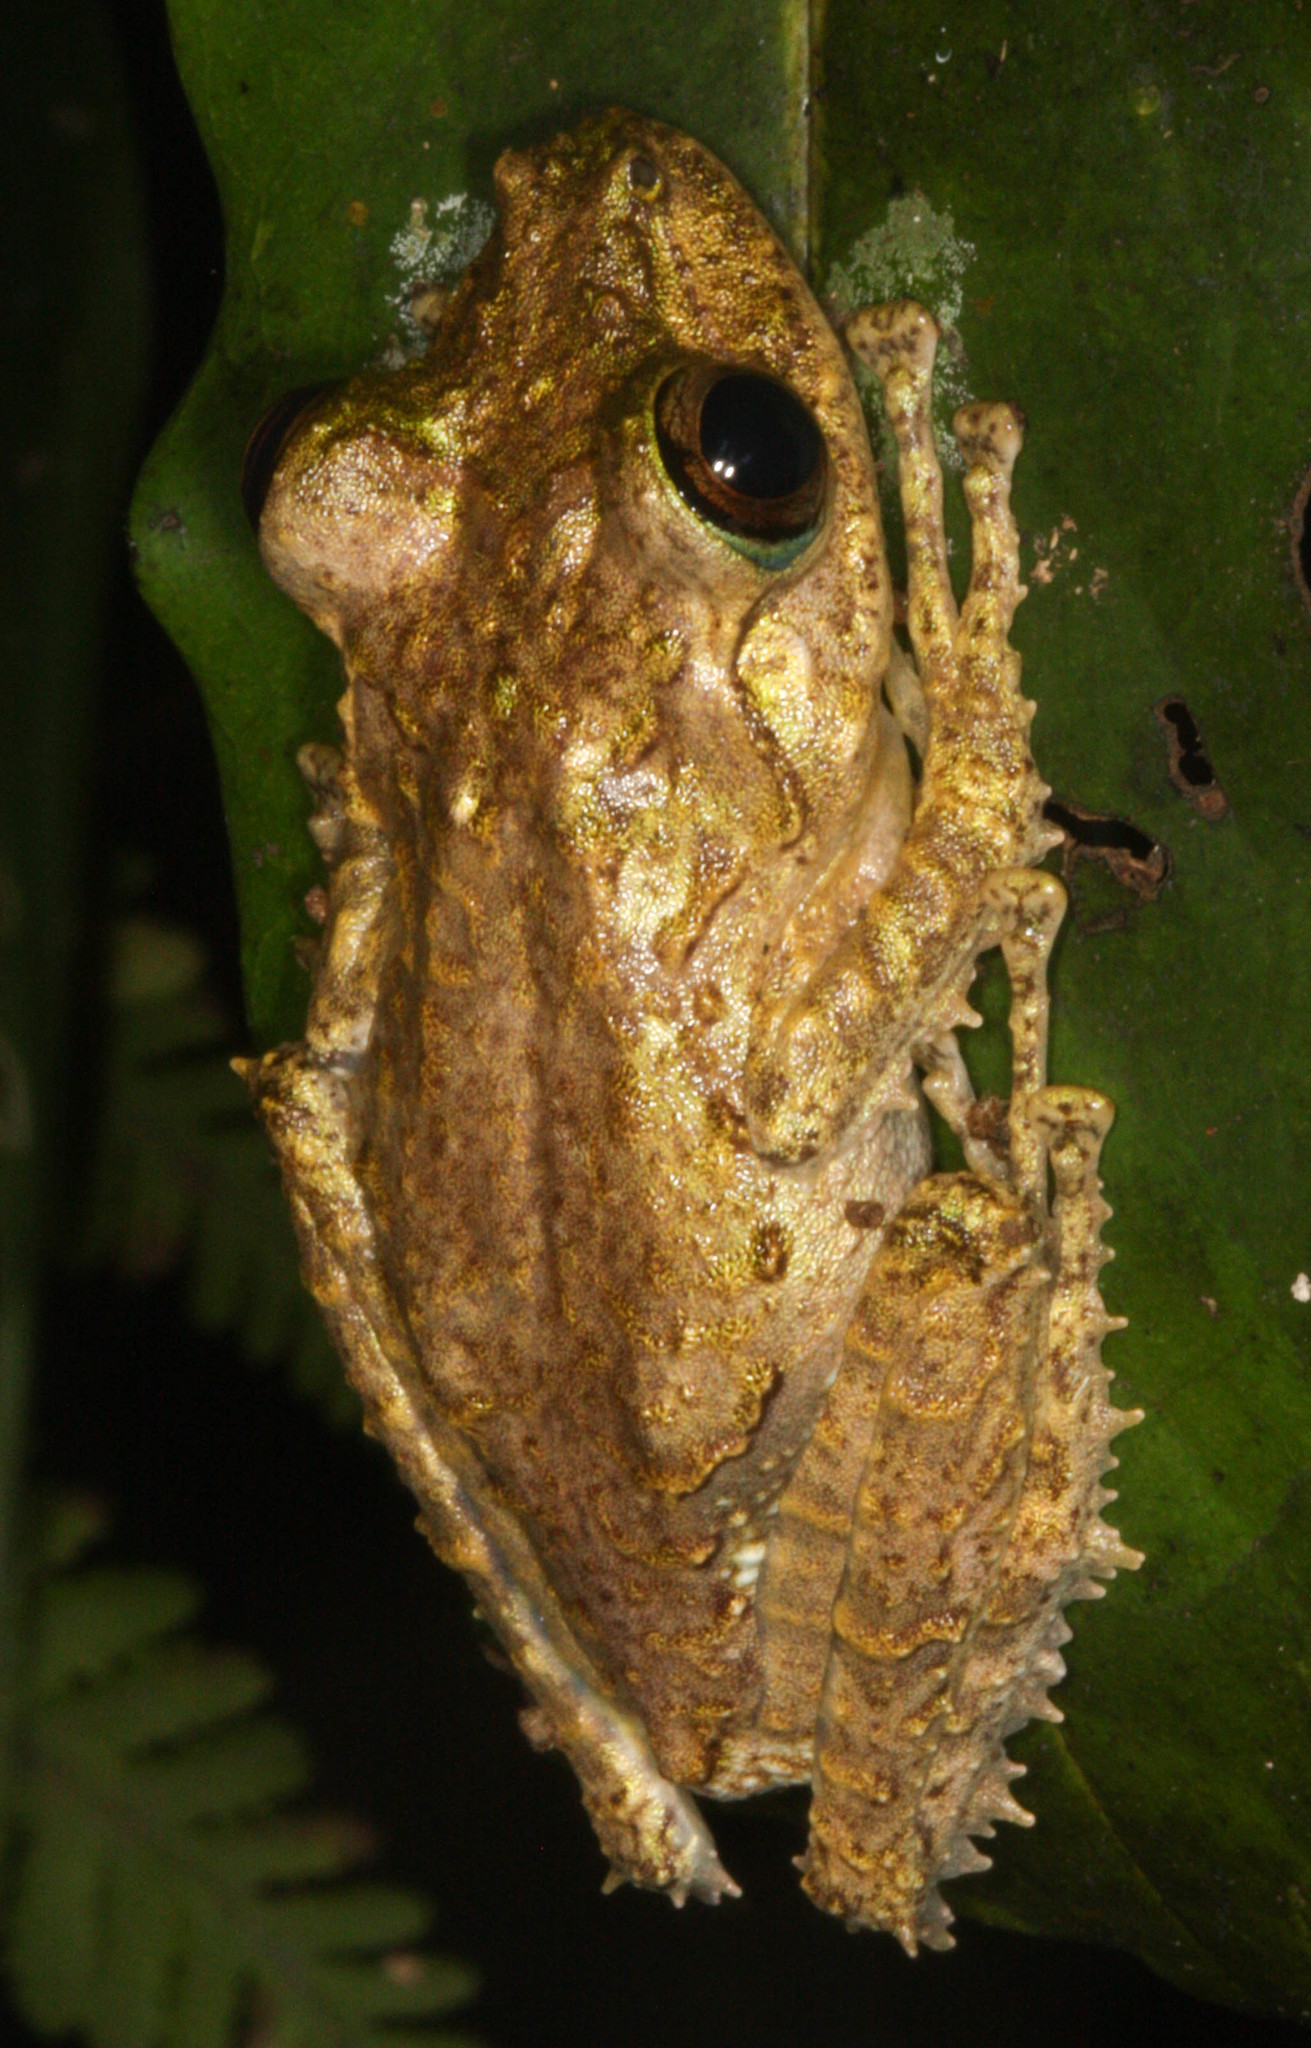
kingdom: Animalia
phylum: Chordata
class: Amphibia
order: Anura
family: Mantellidae
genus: Spinomantis
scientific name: Spinomantis fimbriatus
